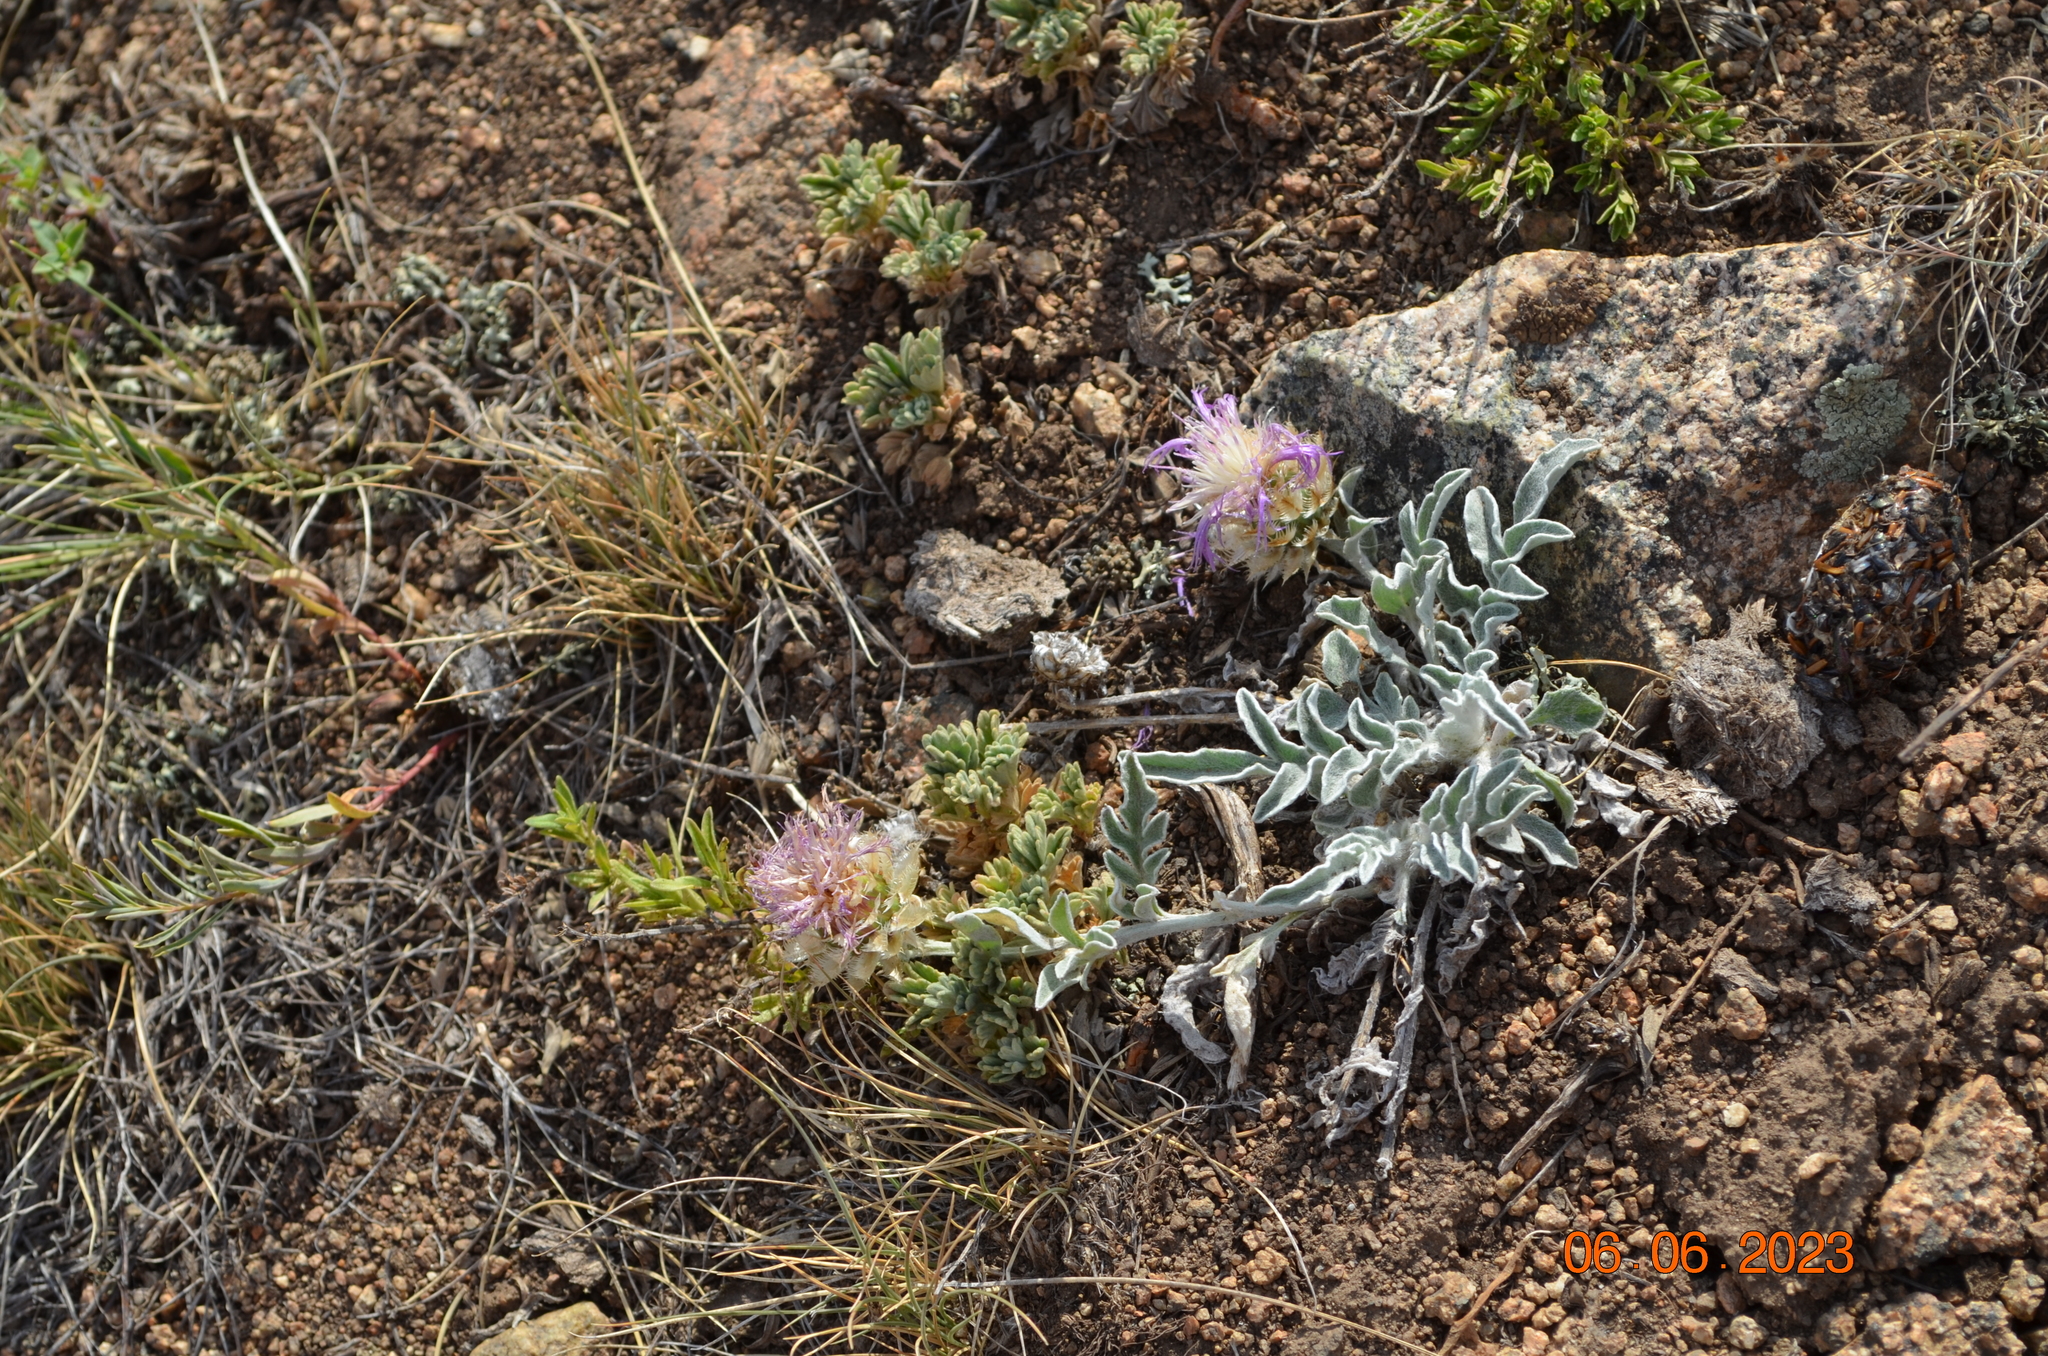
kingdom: Plantae
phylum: Tracheophyta
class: Magnoliopsida
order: Asterales
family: Asteraceae
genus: Psephellus
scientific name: Psephellus sibiricus
